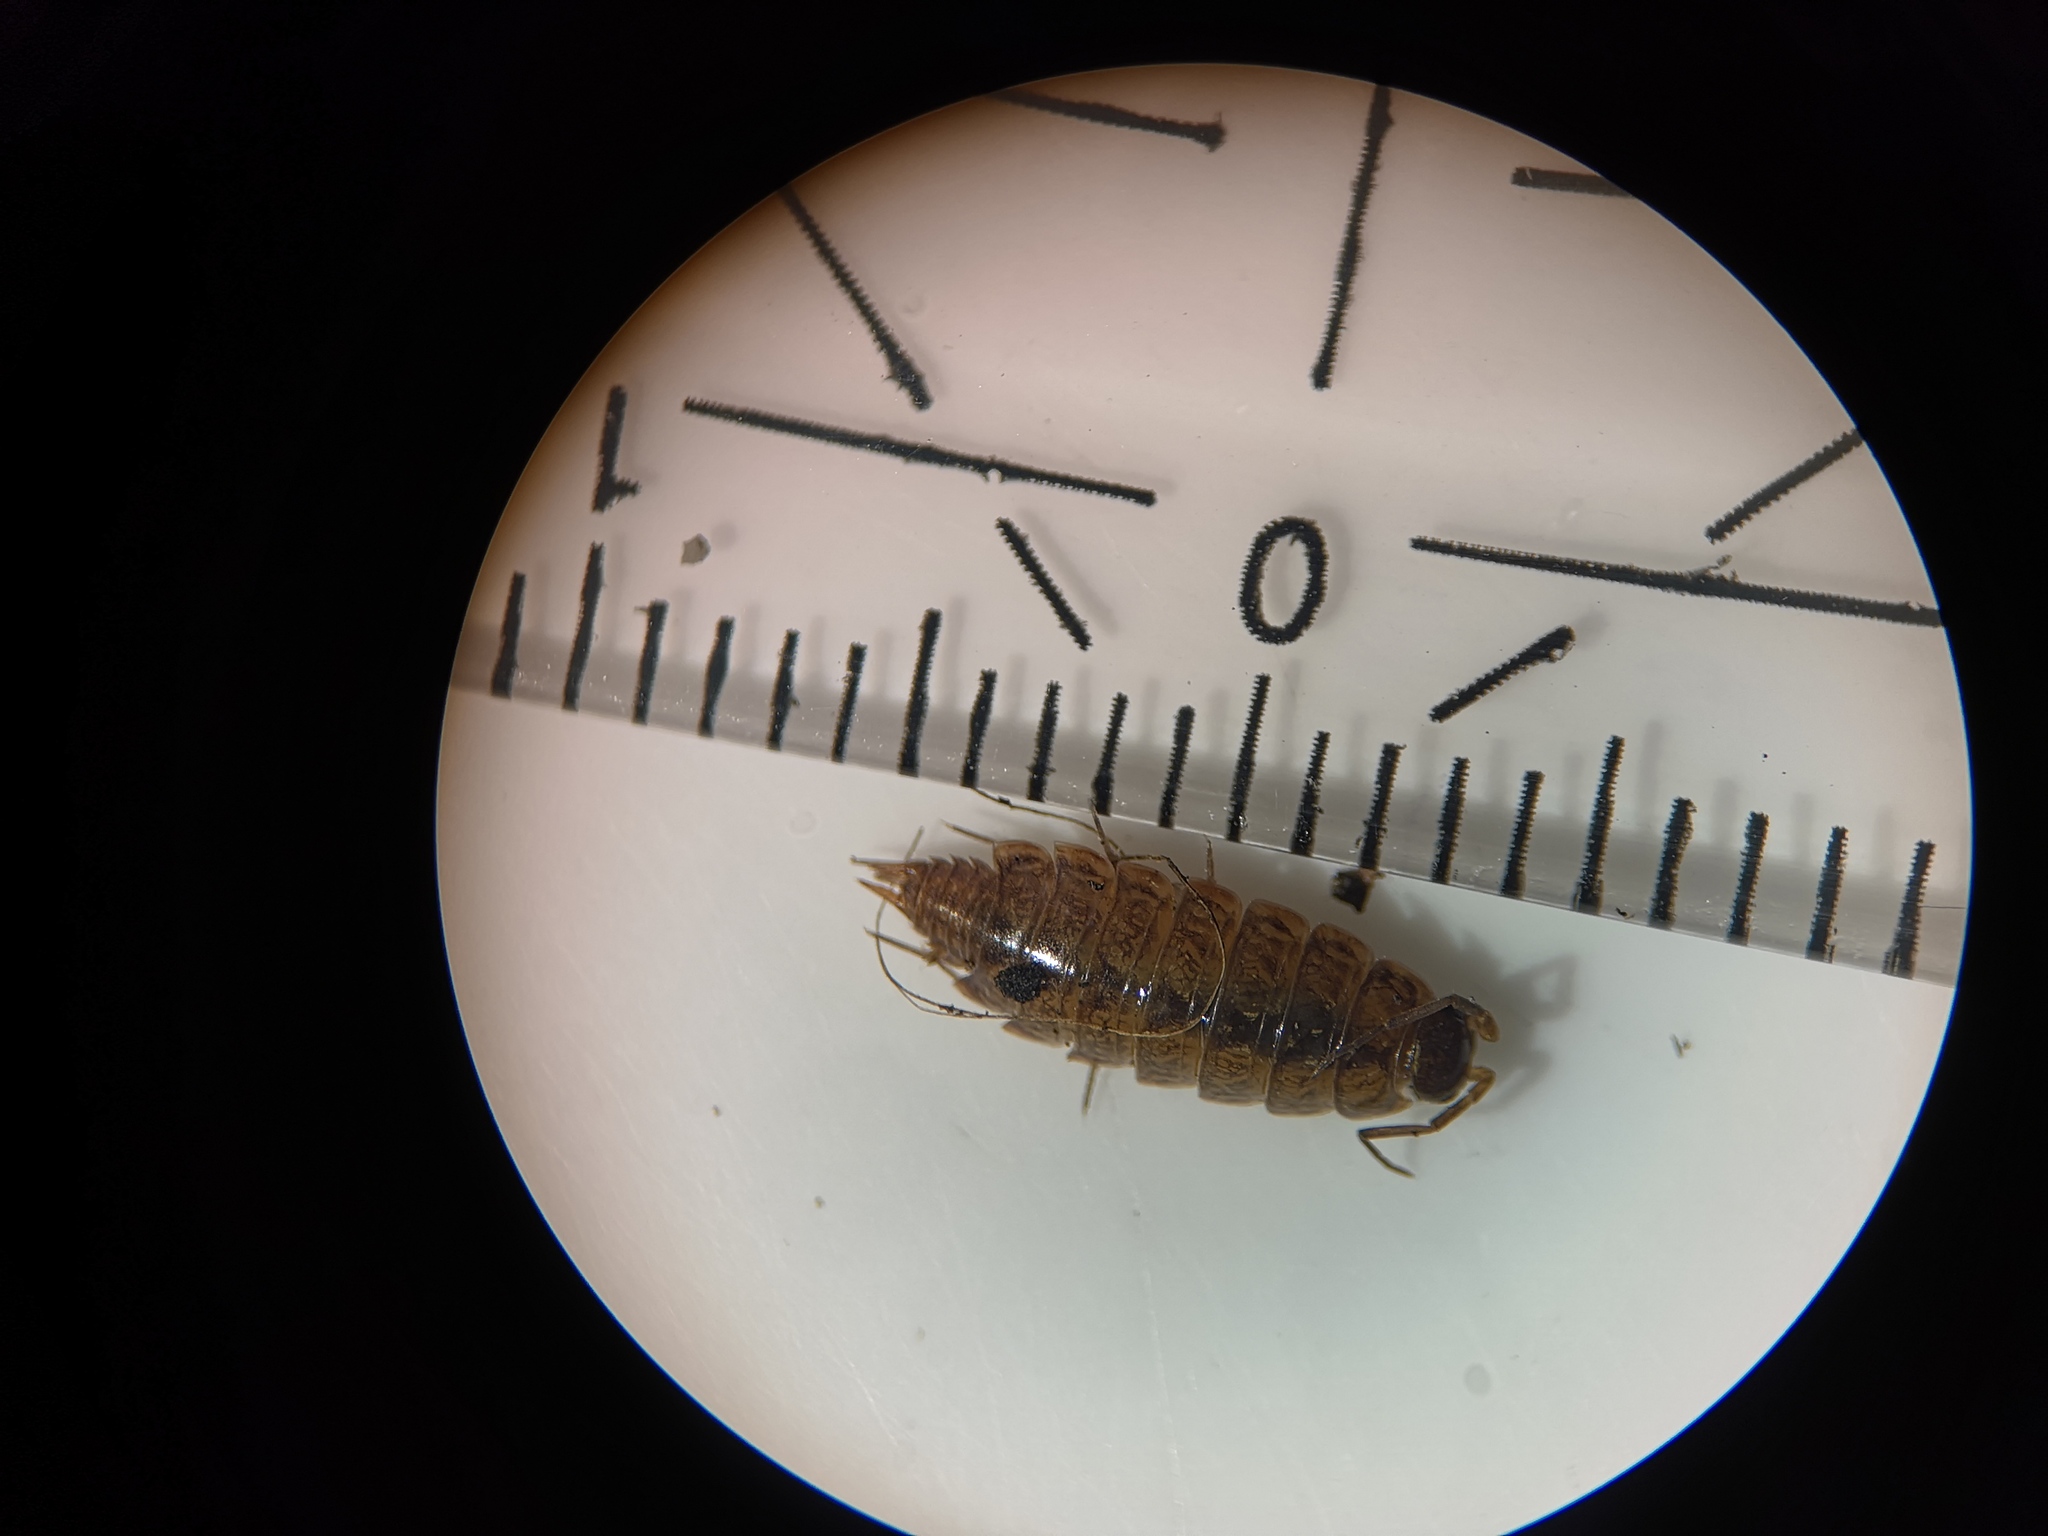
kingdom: Animalia
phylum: Arthropoda
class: Malacostraca
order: Isopoda
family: Philosciidae
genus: Philoscia
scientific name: Philoscia muscorum
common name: Common striped woodlouse
